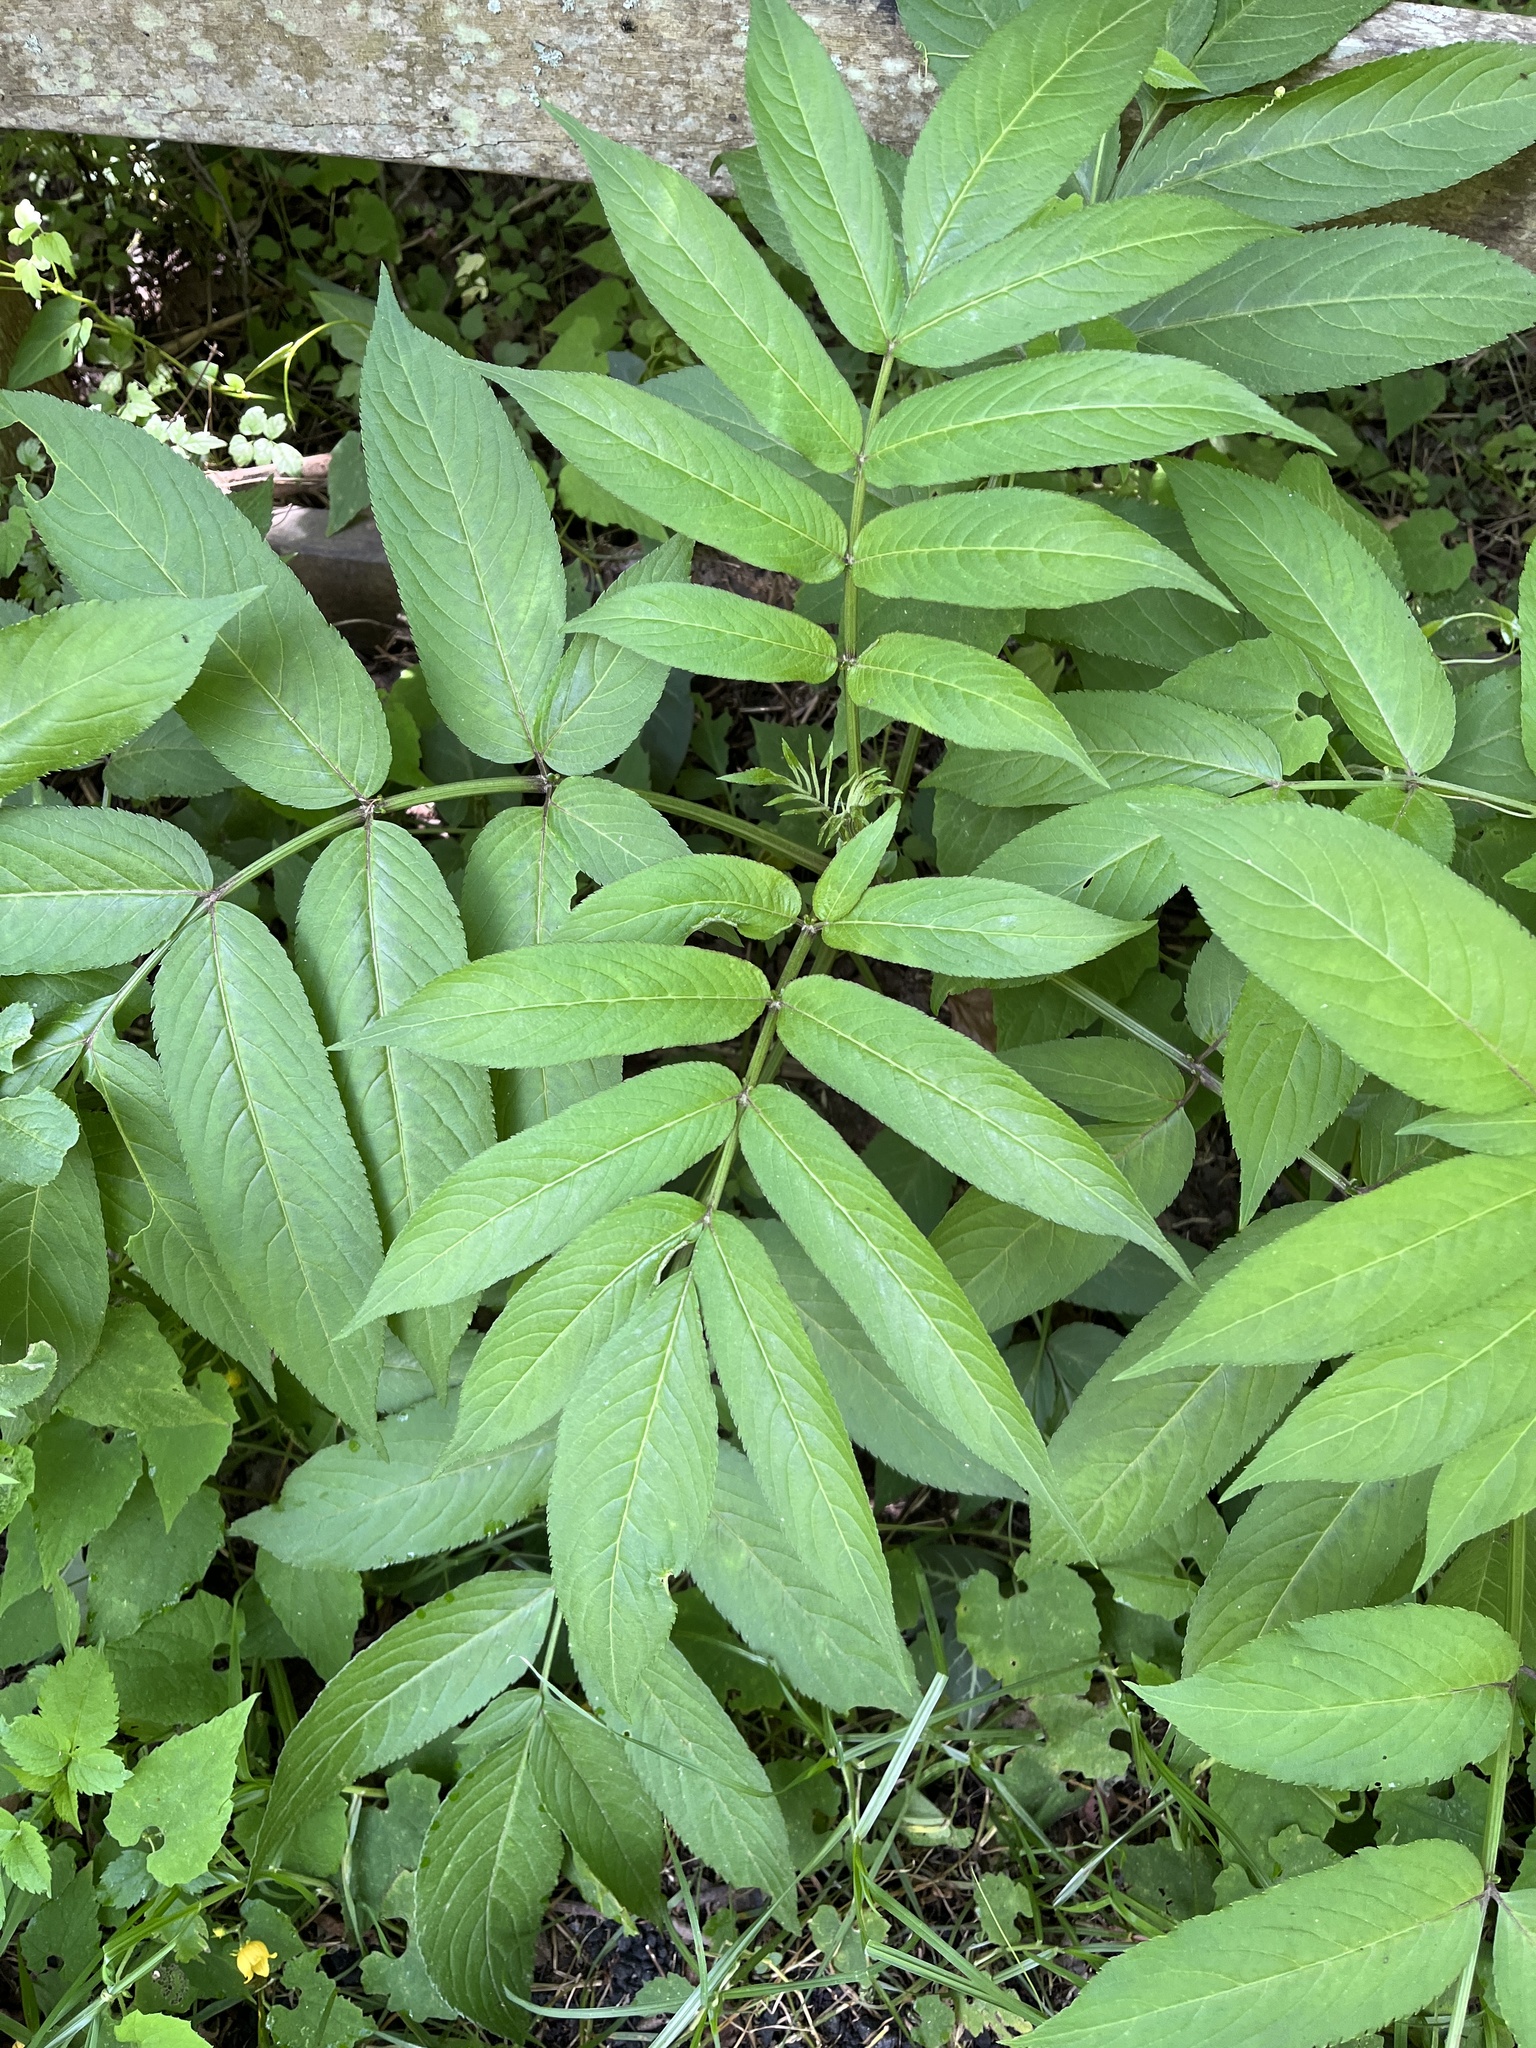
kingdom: Plantae
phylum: Tracheophyta
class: Magnoliopsida
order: Dipsacales
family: Viburnaceae
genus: Sambucus
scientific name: Sambucus javanica
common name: Chinese elder
